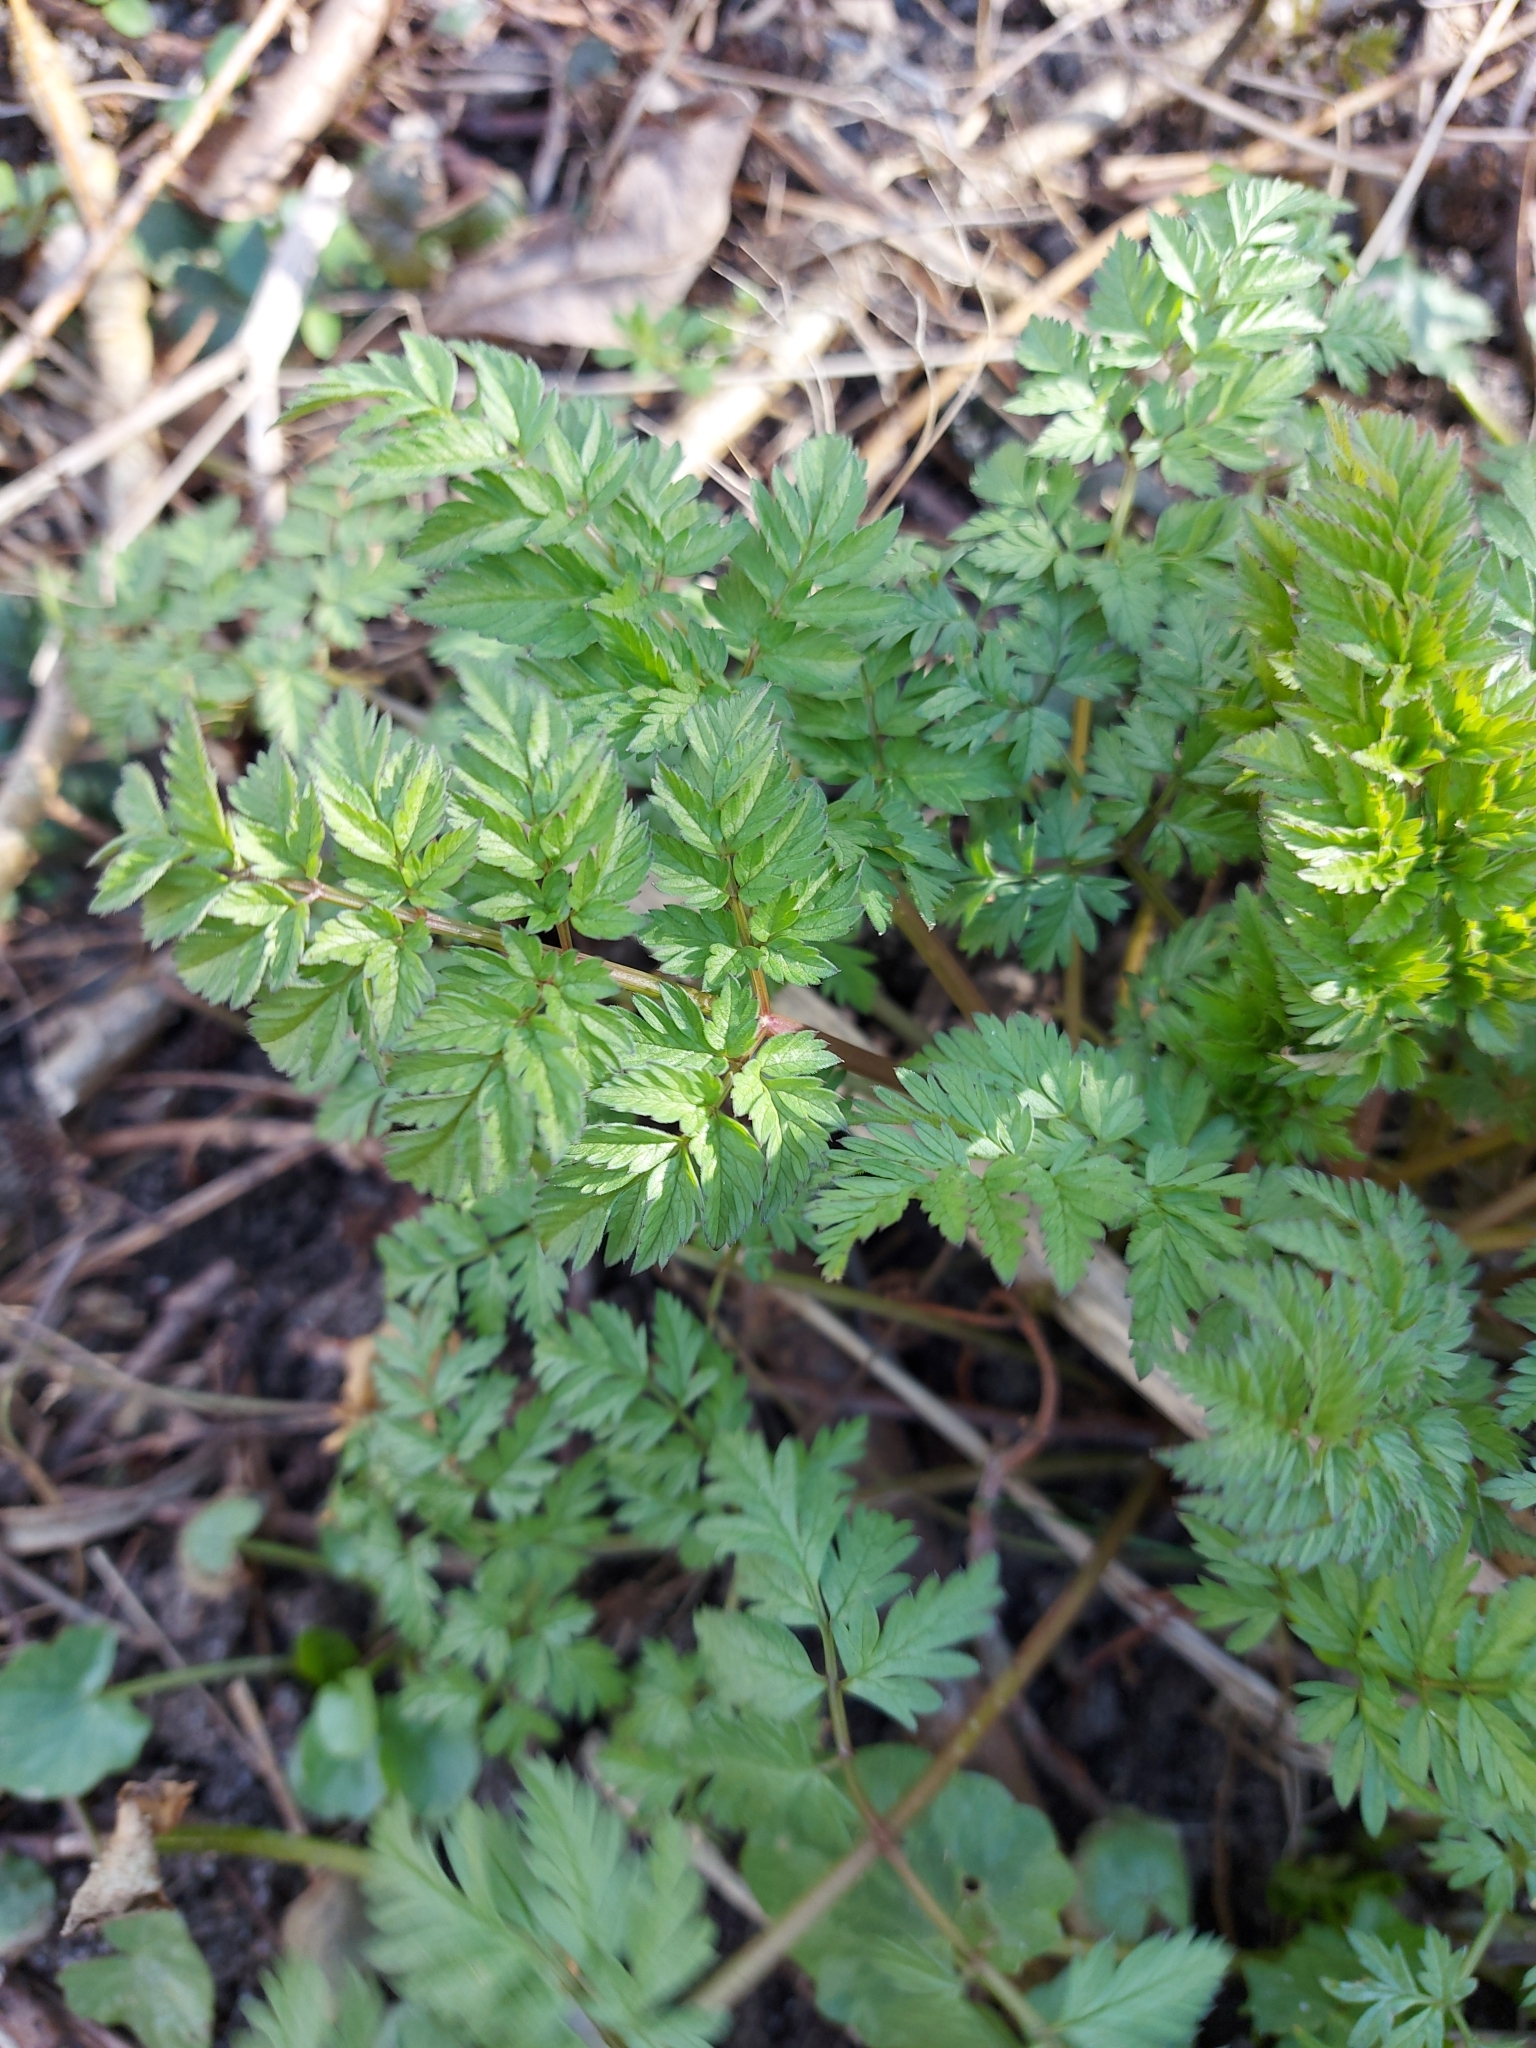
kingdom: Plantae
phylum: Tracheophyta
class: Magnoliopsida
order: Apiales
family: Apiaceae
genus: Anthriscus
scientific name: Anthriscus sylvestris
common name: Cow parsley
